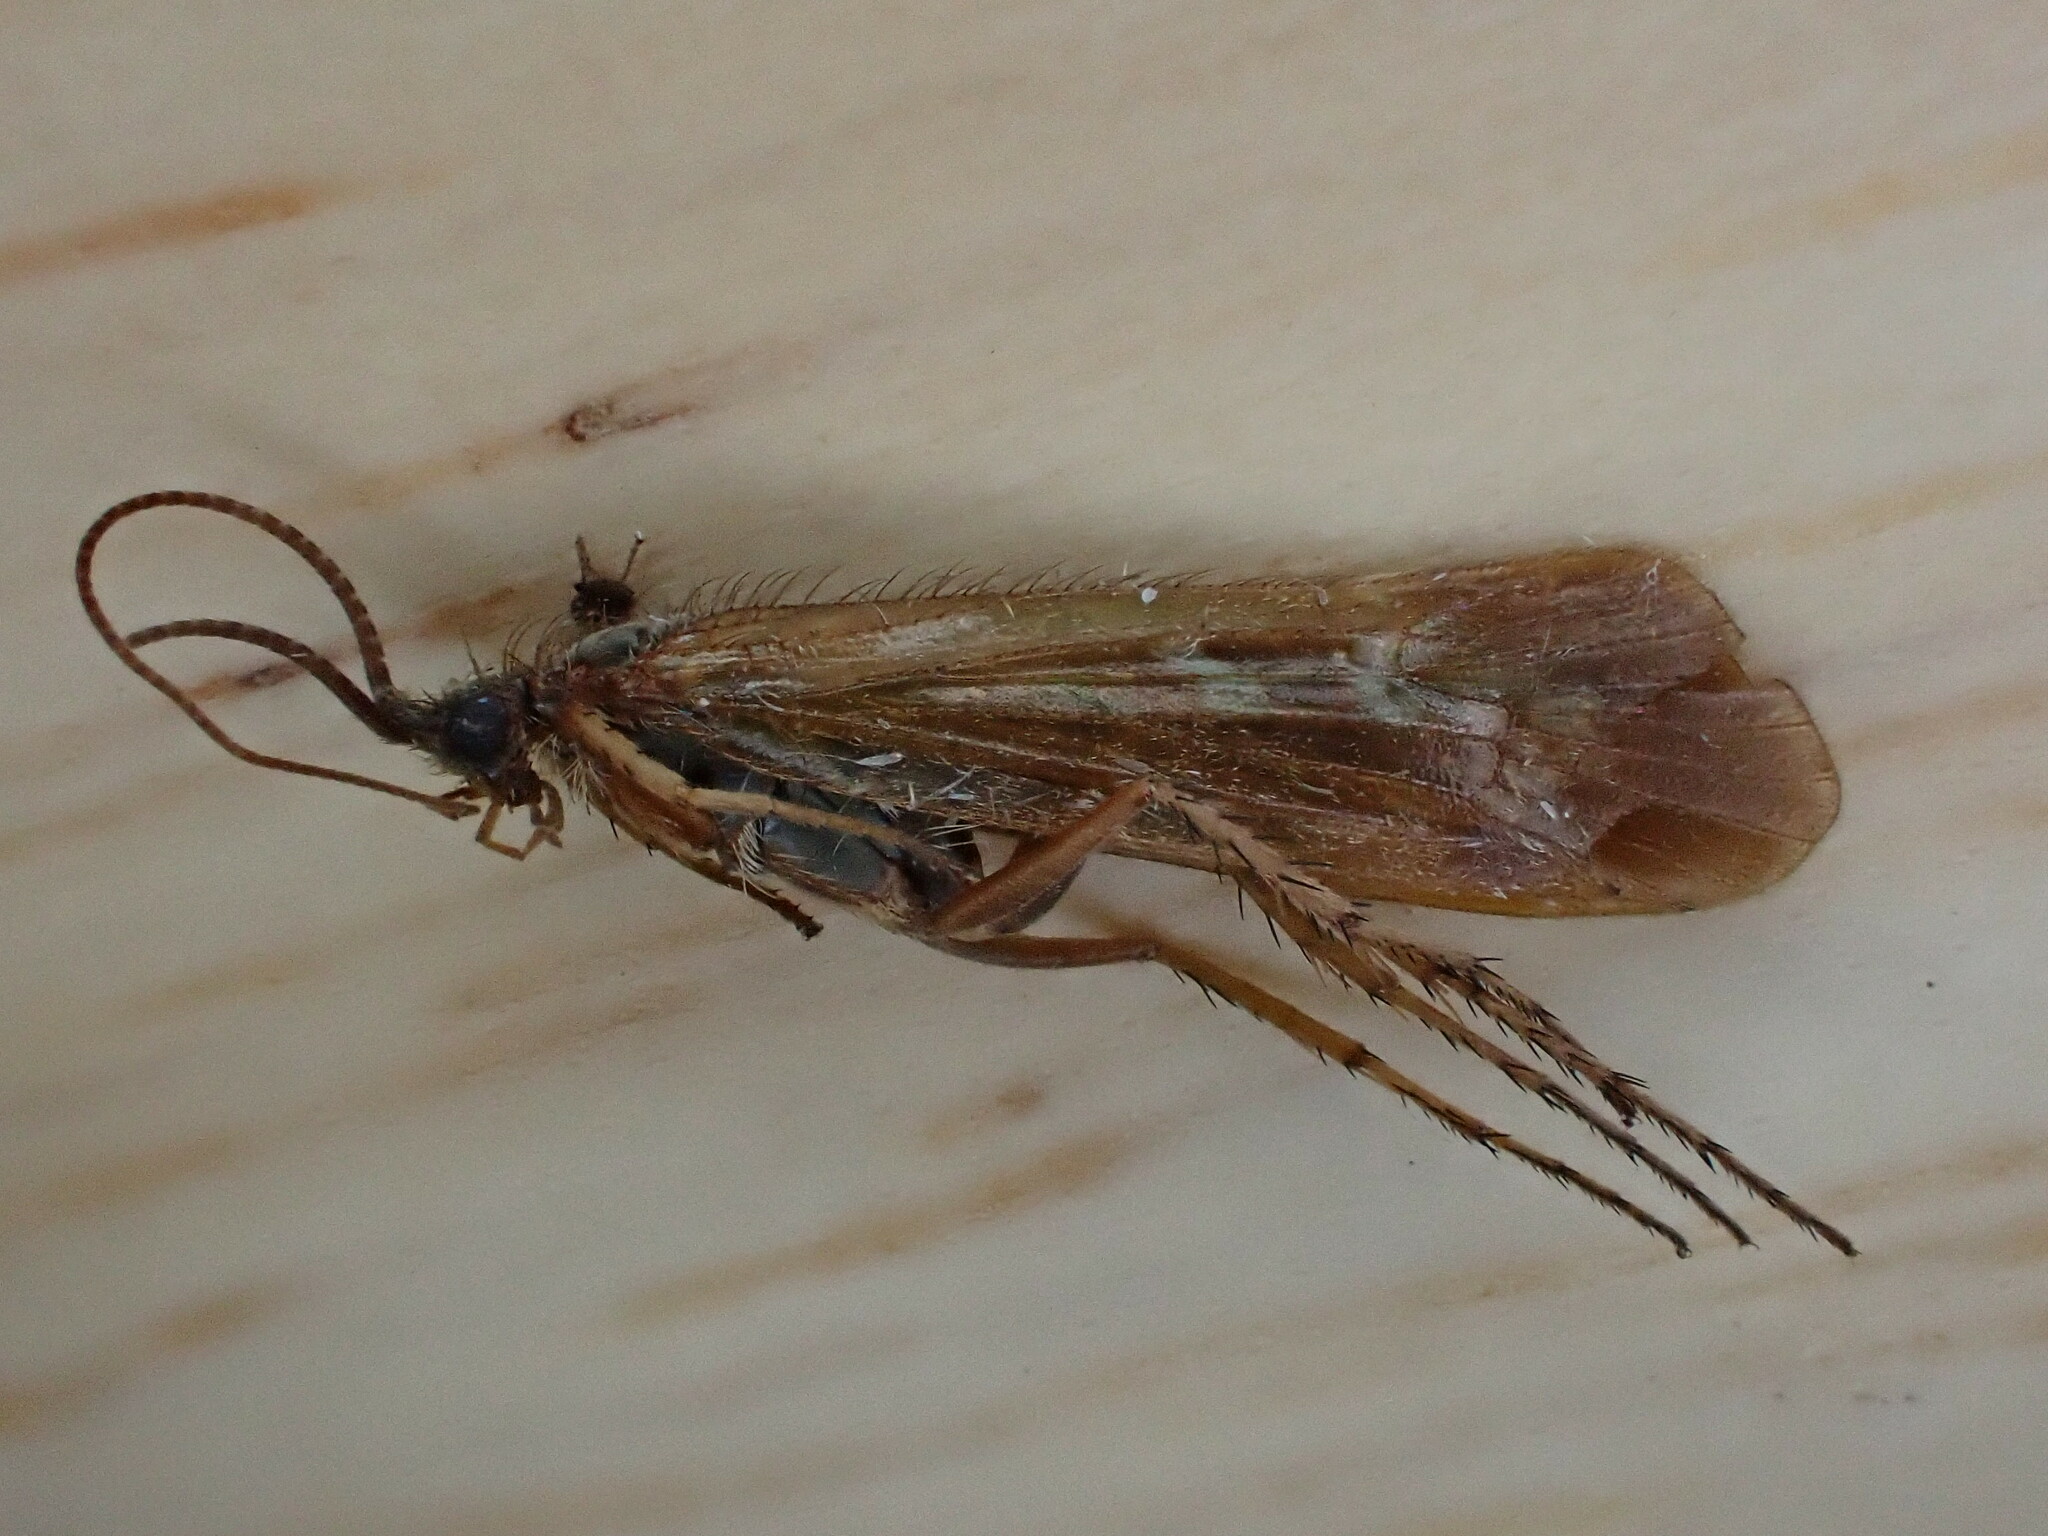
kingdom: Animalia
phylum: Arthropoda
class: Insecta
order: Trichoptera
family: Limnephilidae
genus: Limnephilus
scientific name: Limnephilus auricula
